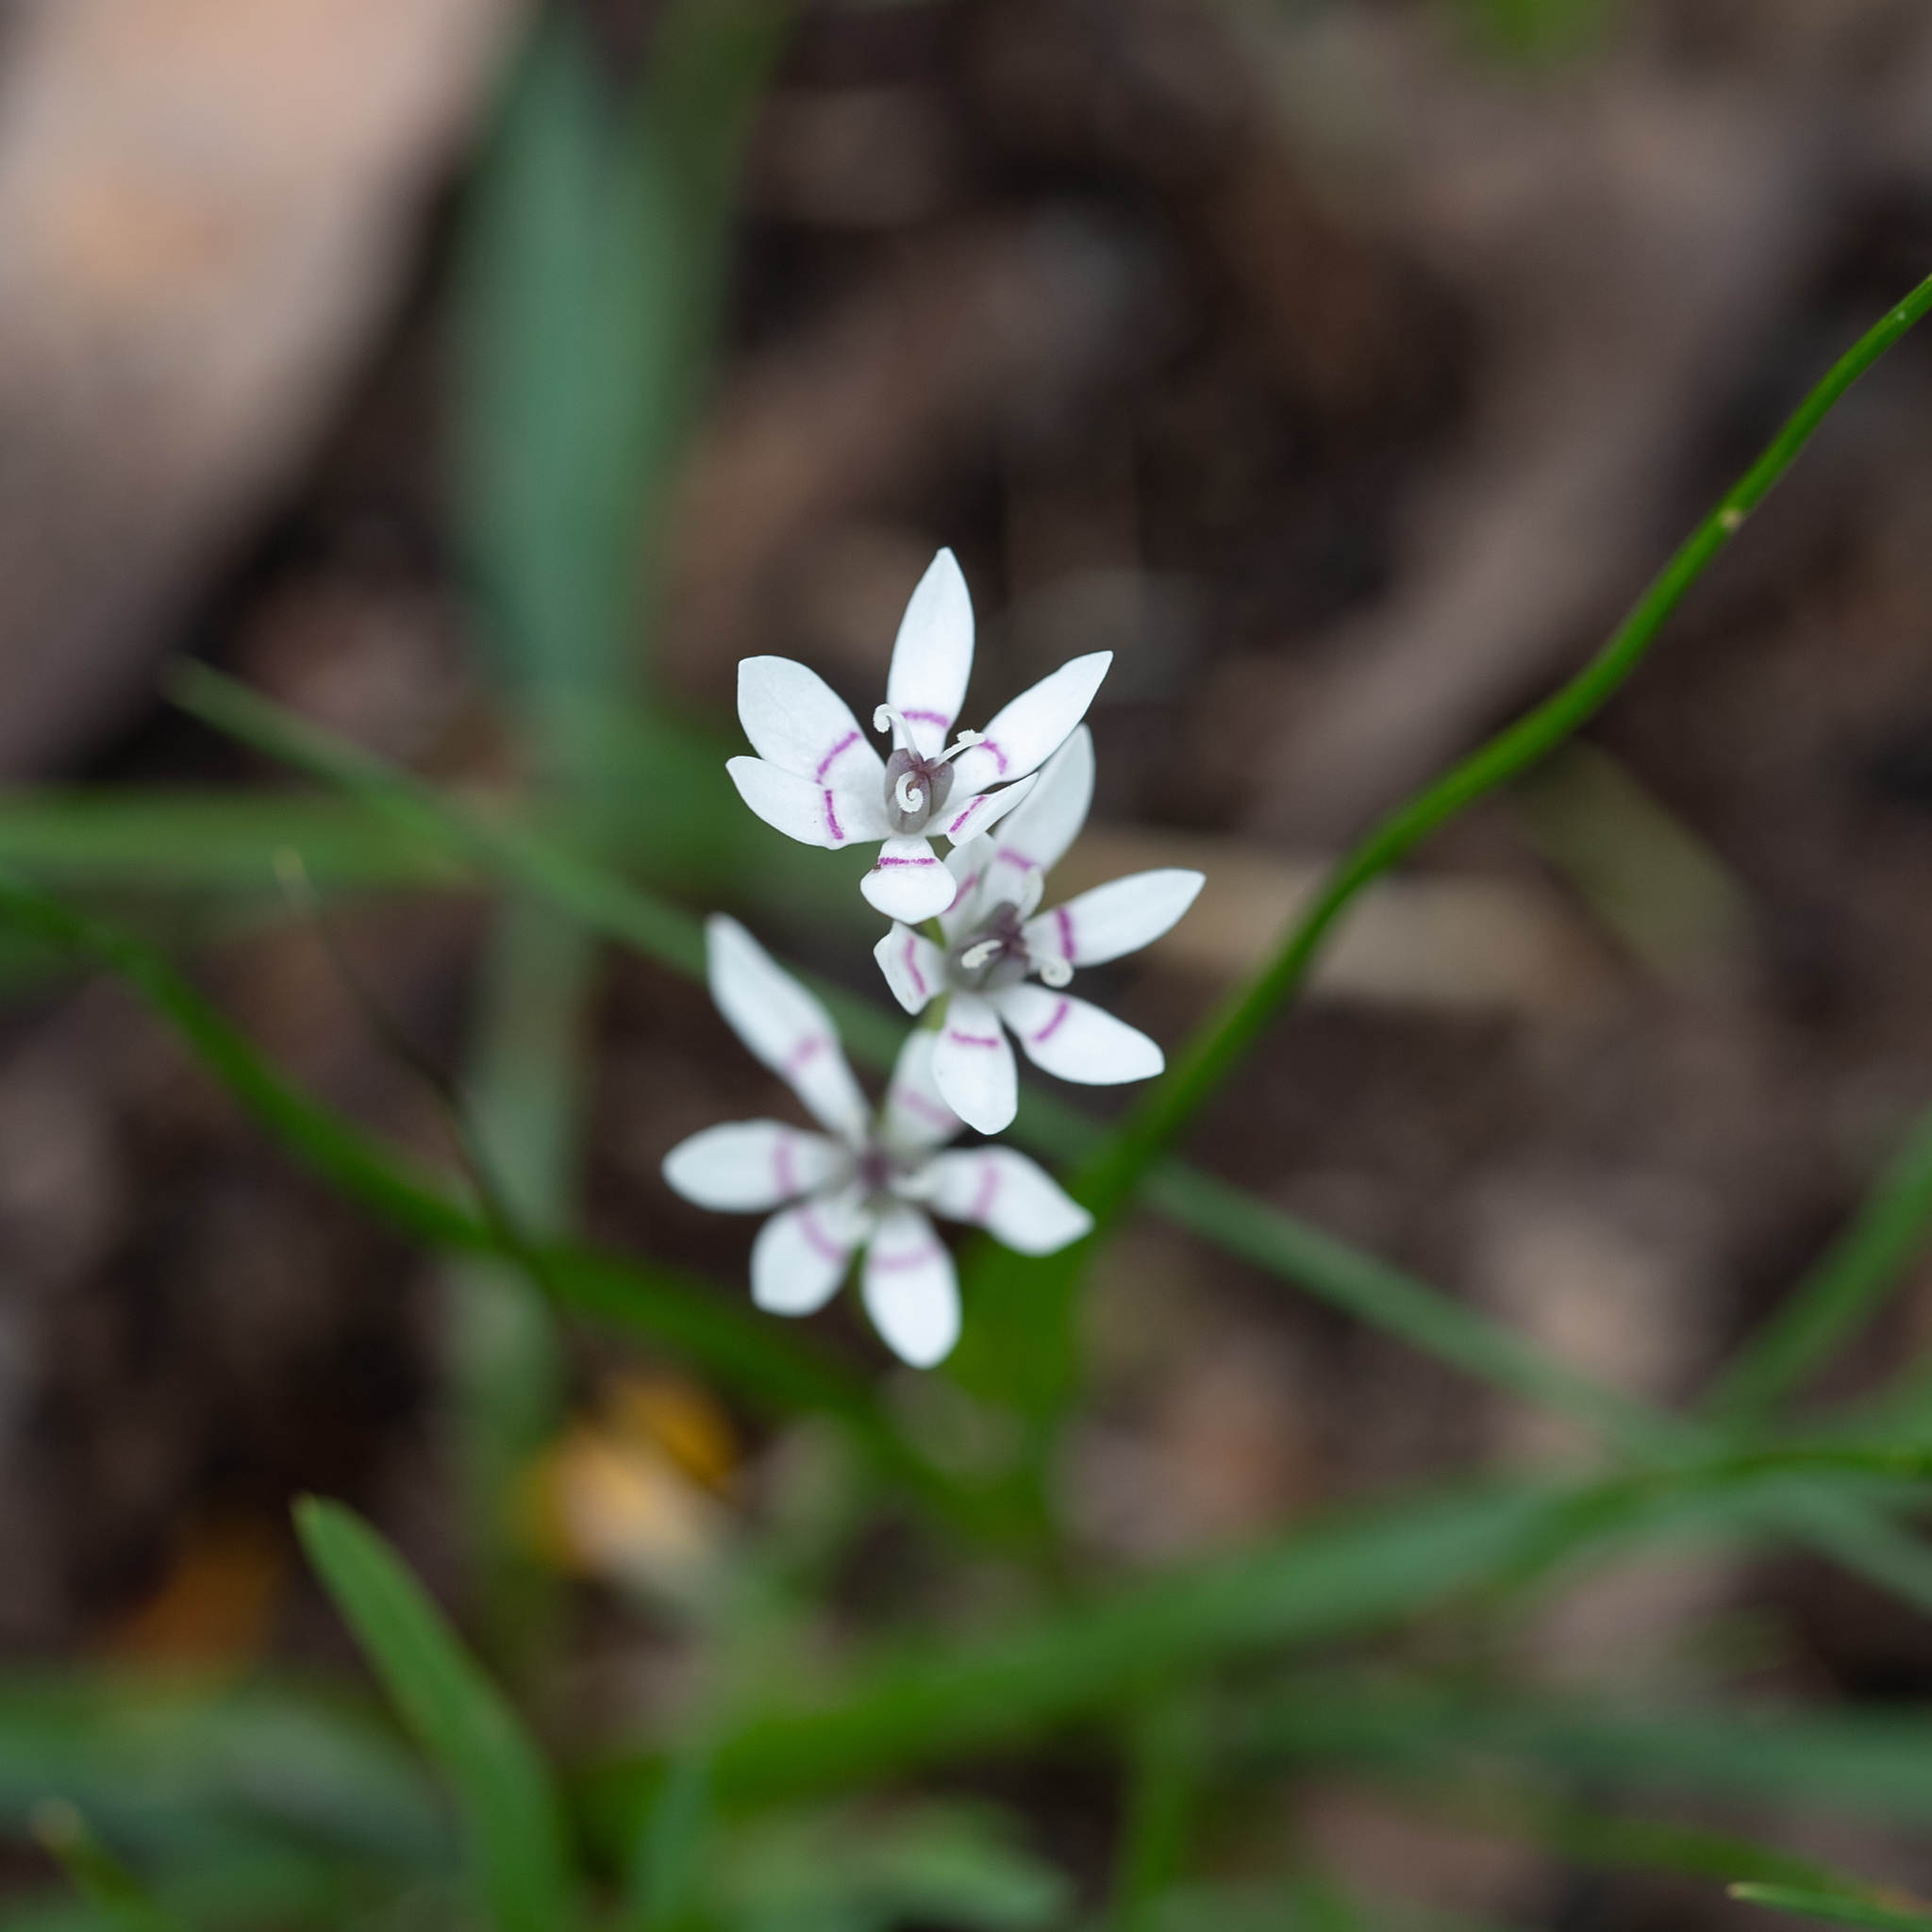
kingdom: Plantae
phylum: Tracheophyta
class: Liliopsida
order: Liliales
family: Colchicaceae
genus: Wurmbea
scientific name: Wurmbea dioica
